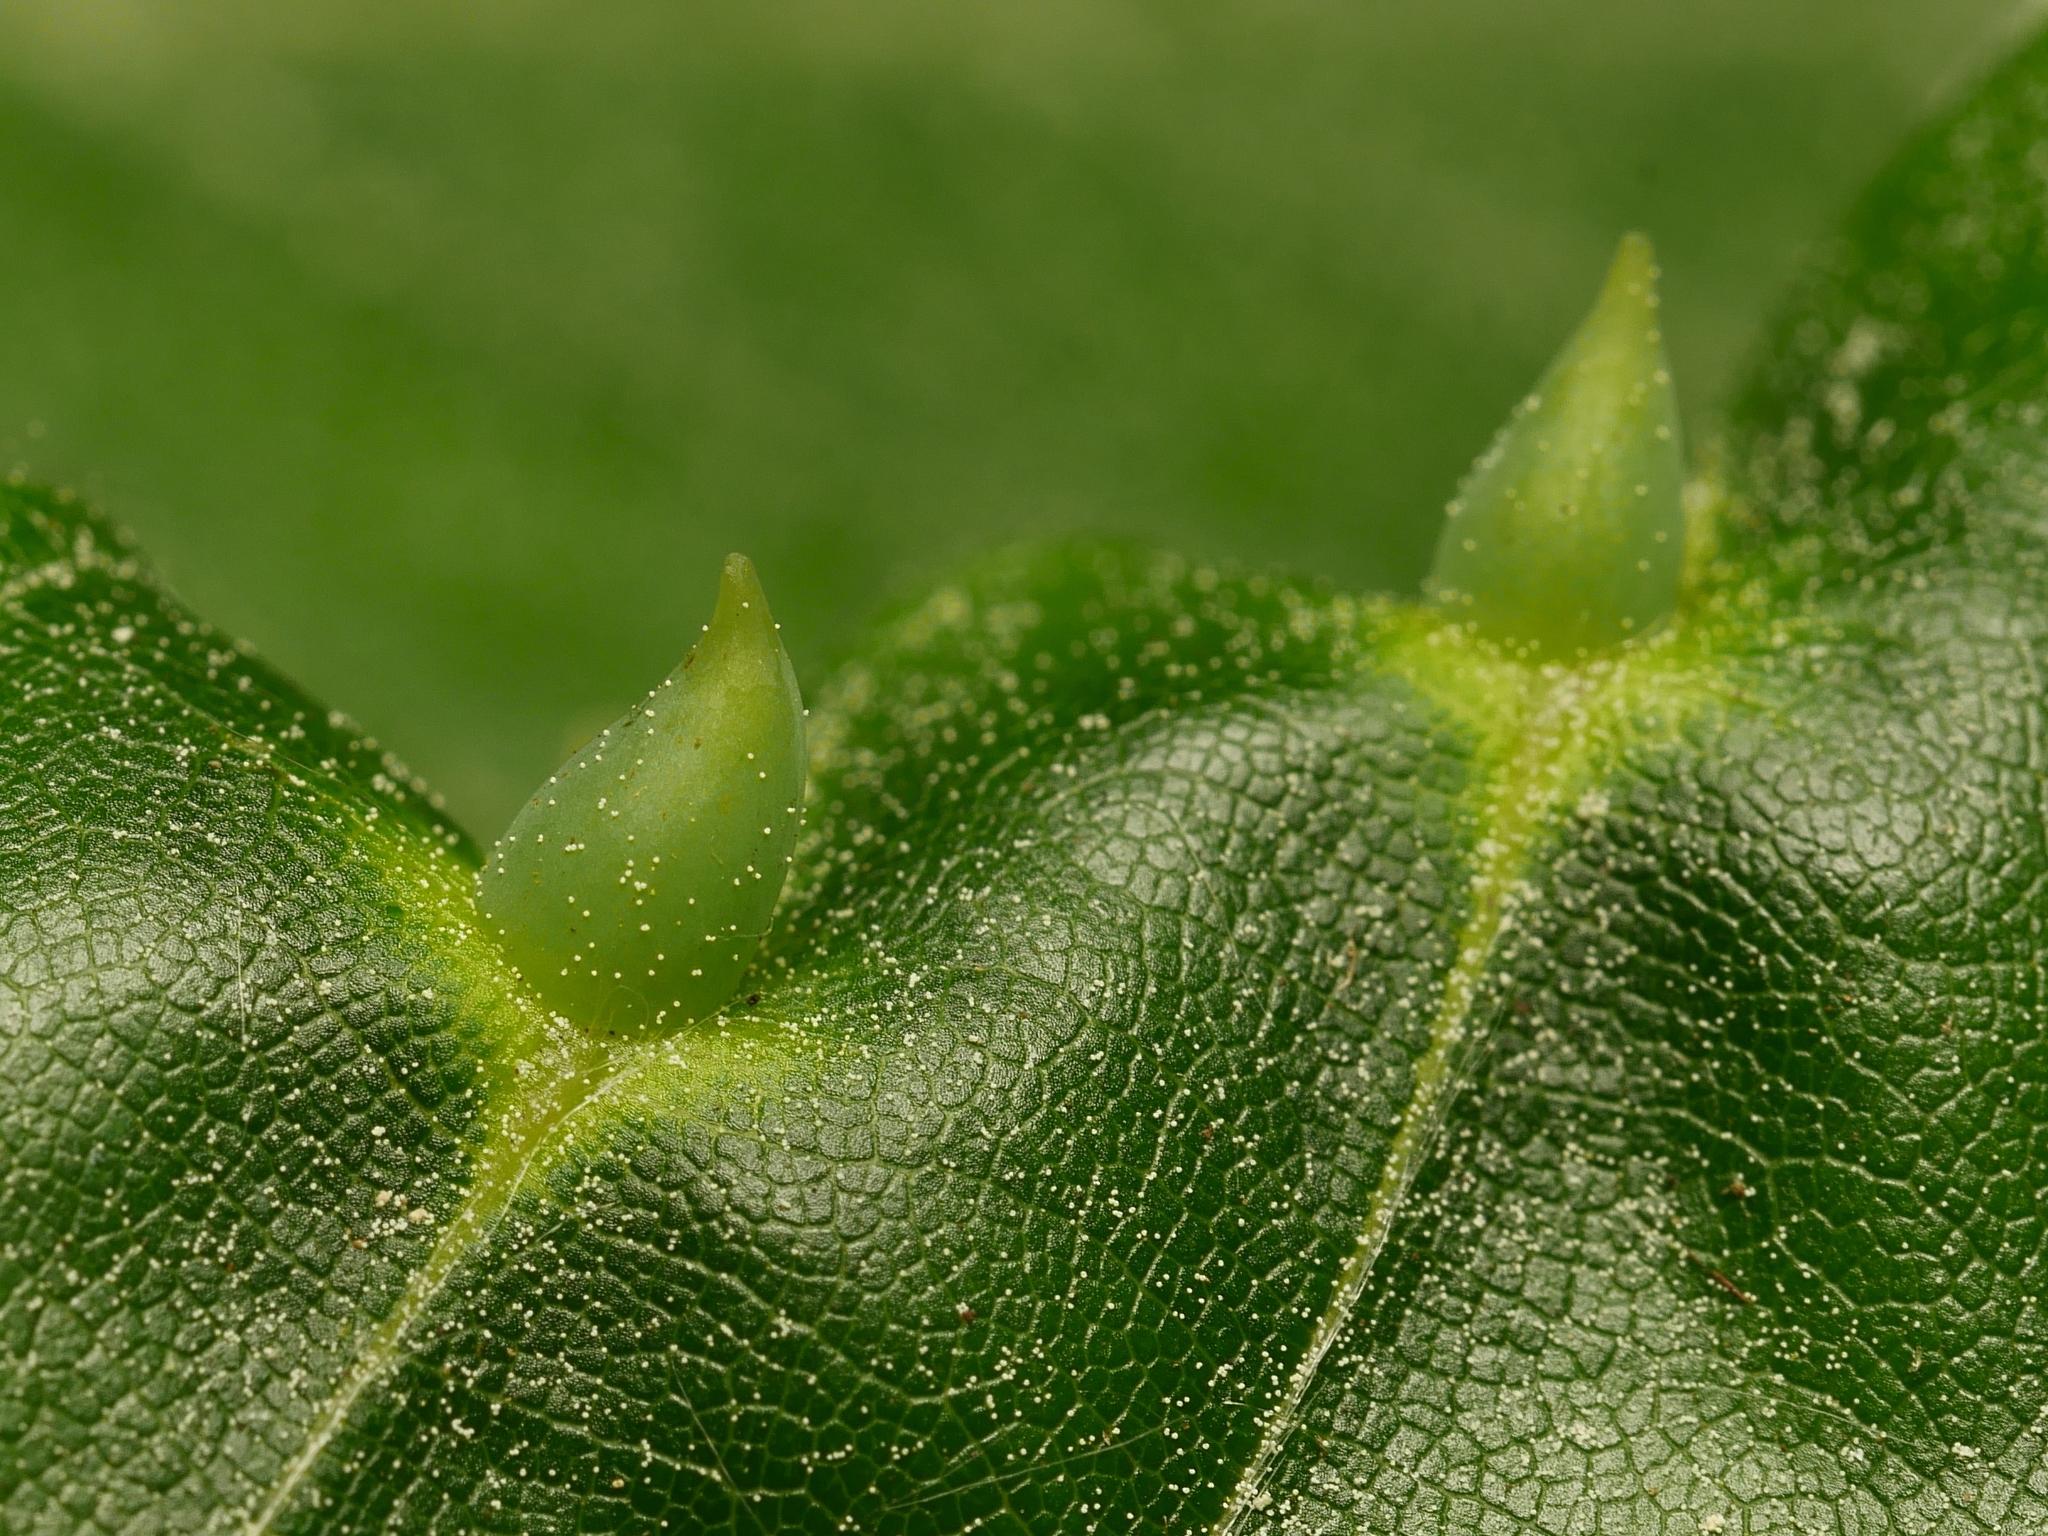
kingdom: Animalia
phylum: Arthropoda
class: Insecta
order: Diptera
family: Cecidomyiidae
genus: Mikiola
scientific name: Mikiola fagi
